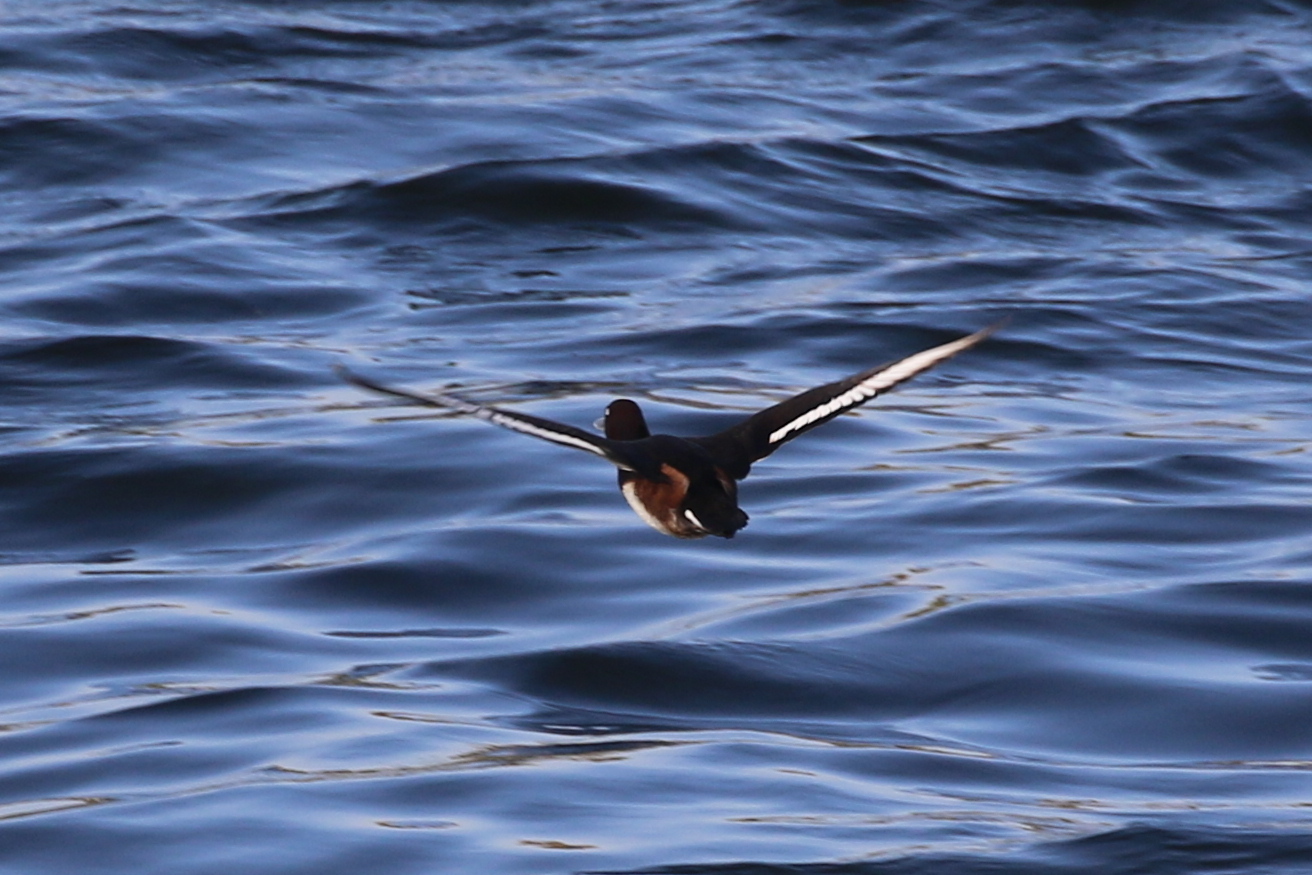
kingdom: Animalia
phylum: Chordata
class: Aves
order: Anseriformes
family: Anatidae
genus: Aythya
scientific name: Aythya nyroca
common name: Ferruginous duck
